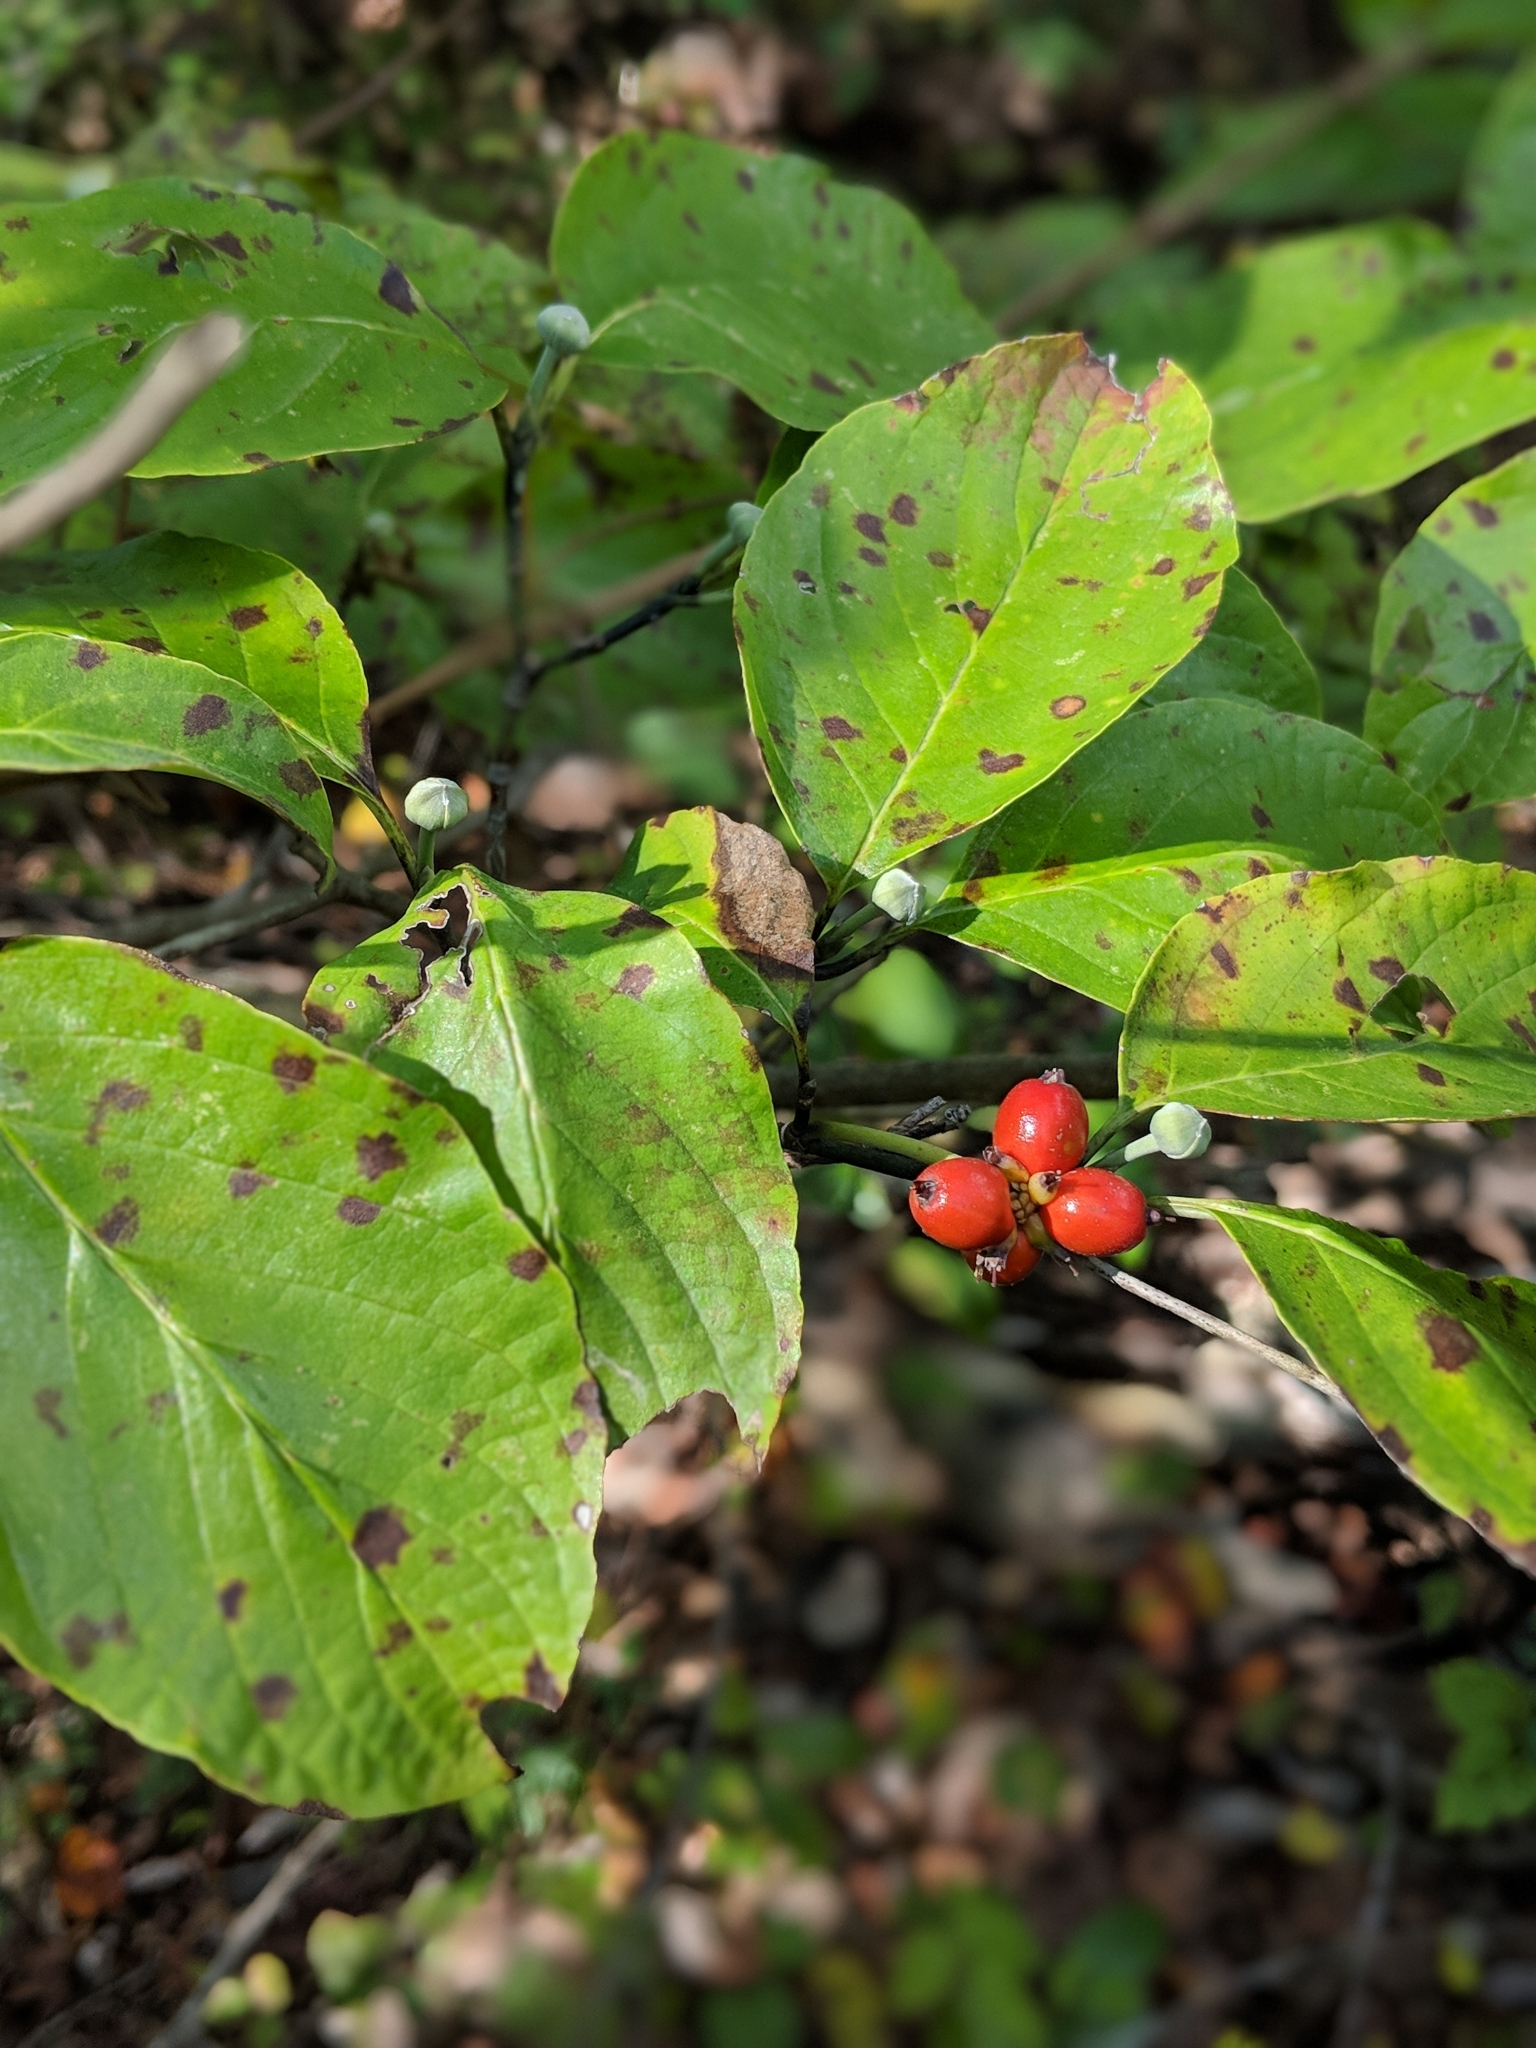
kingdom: Plantae
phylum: Tracheophyta
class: Magnoliopsida
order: Cornales
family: Cornaceae
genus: Cornus
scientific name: Cornus florida
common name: Flowering dogwood
